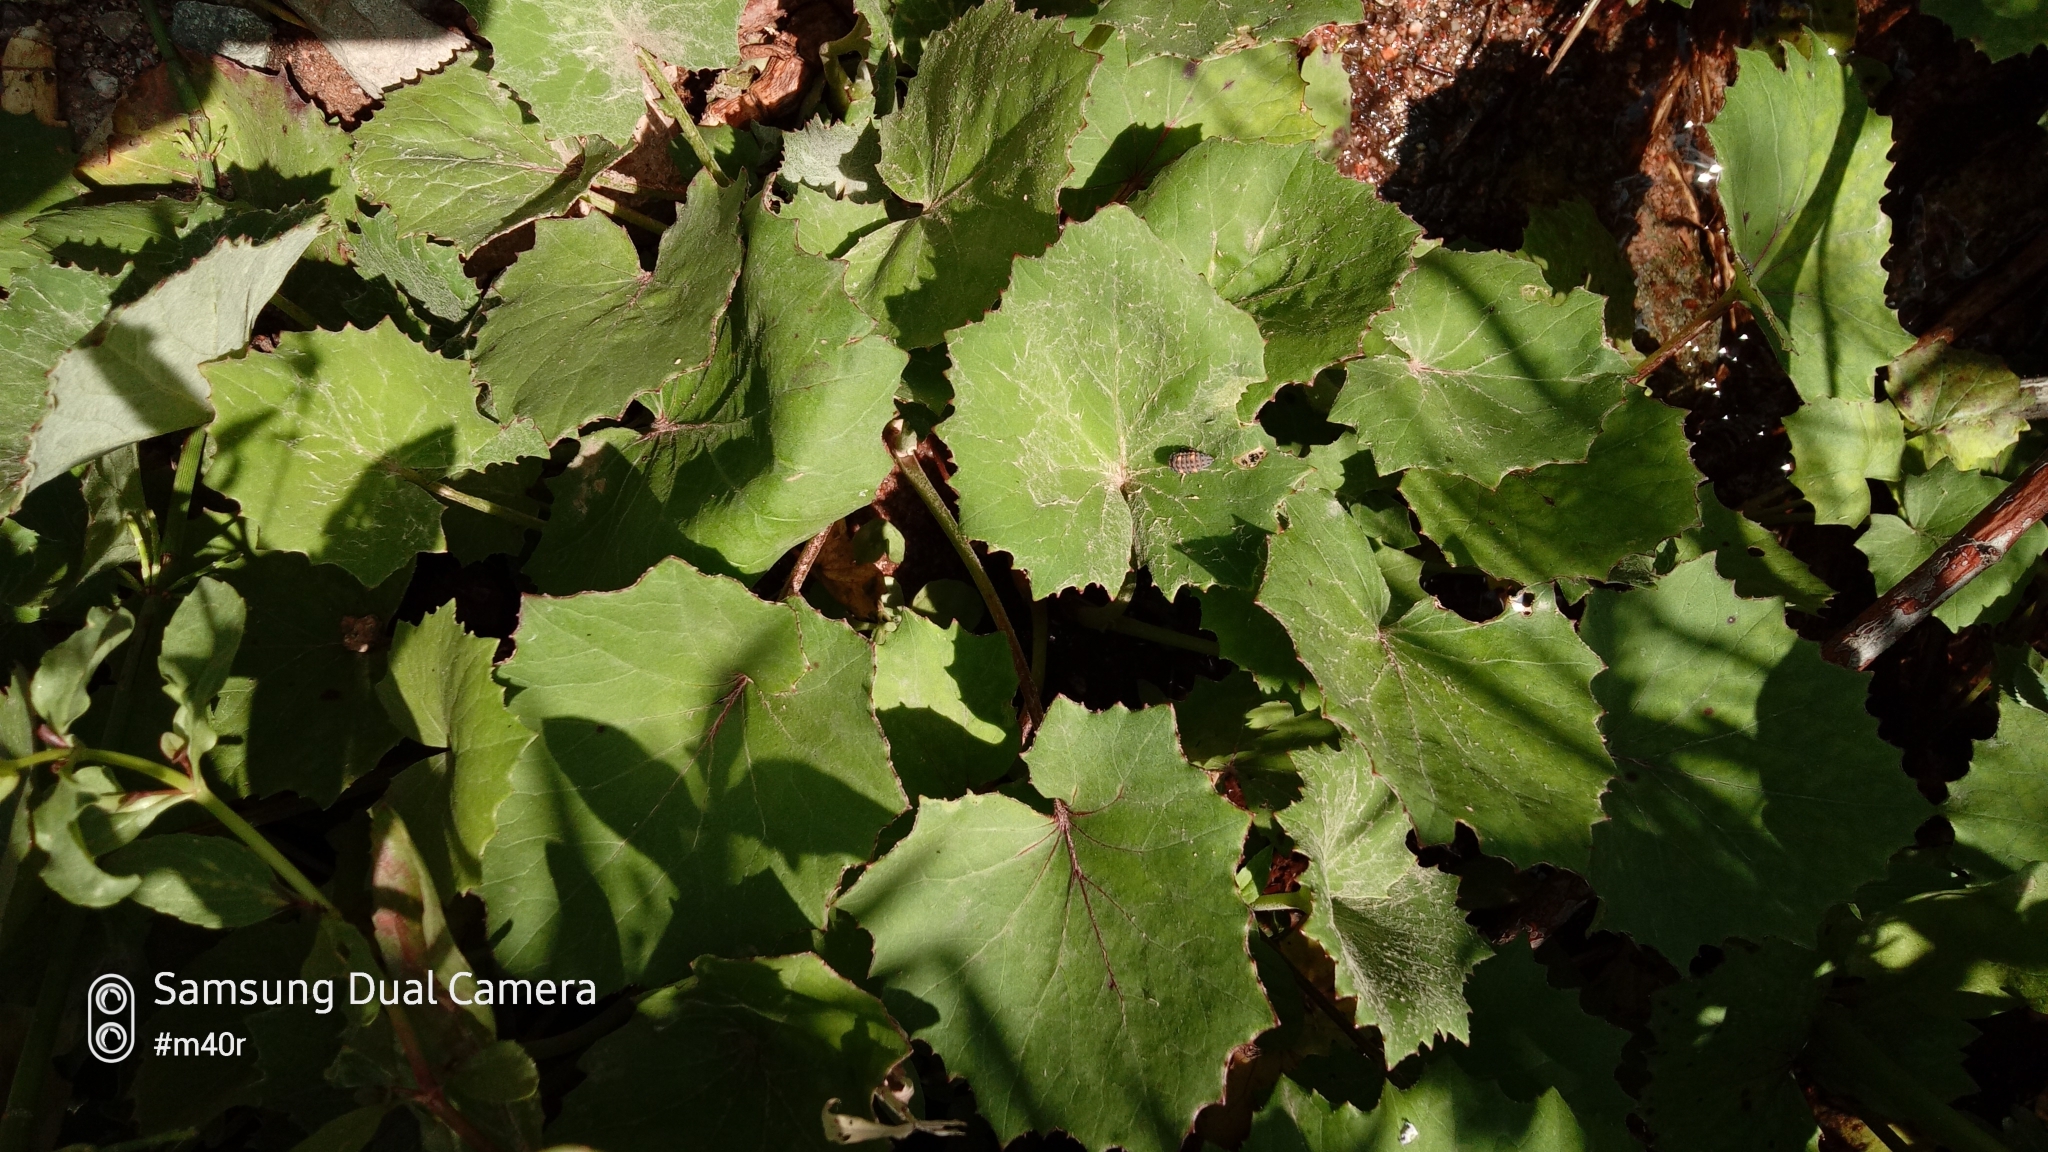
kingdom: Plantae
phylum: Tracheophyta
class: Magnoliopsida
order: Asterales
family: Asteraceae
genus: Tussilago
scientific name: Tussilago farfara
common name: Coltsfoot
